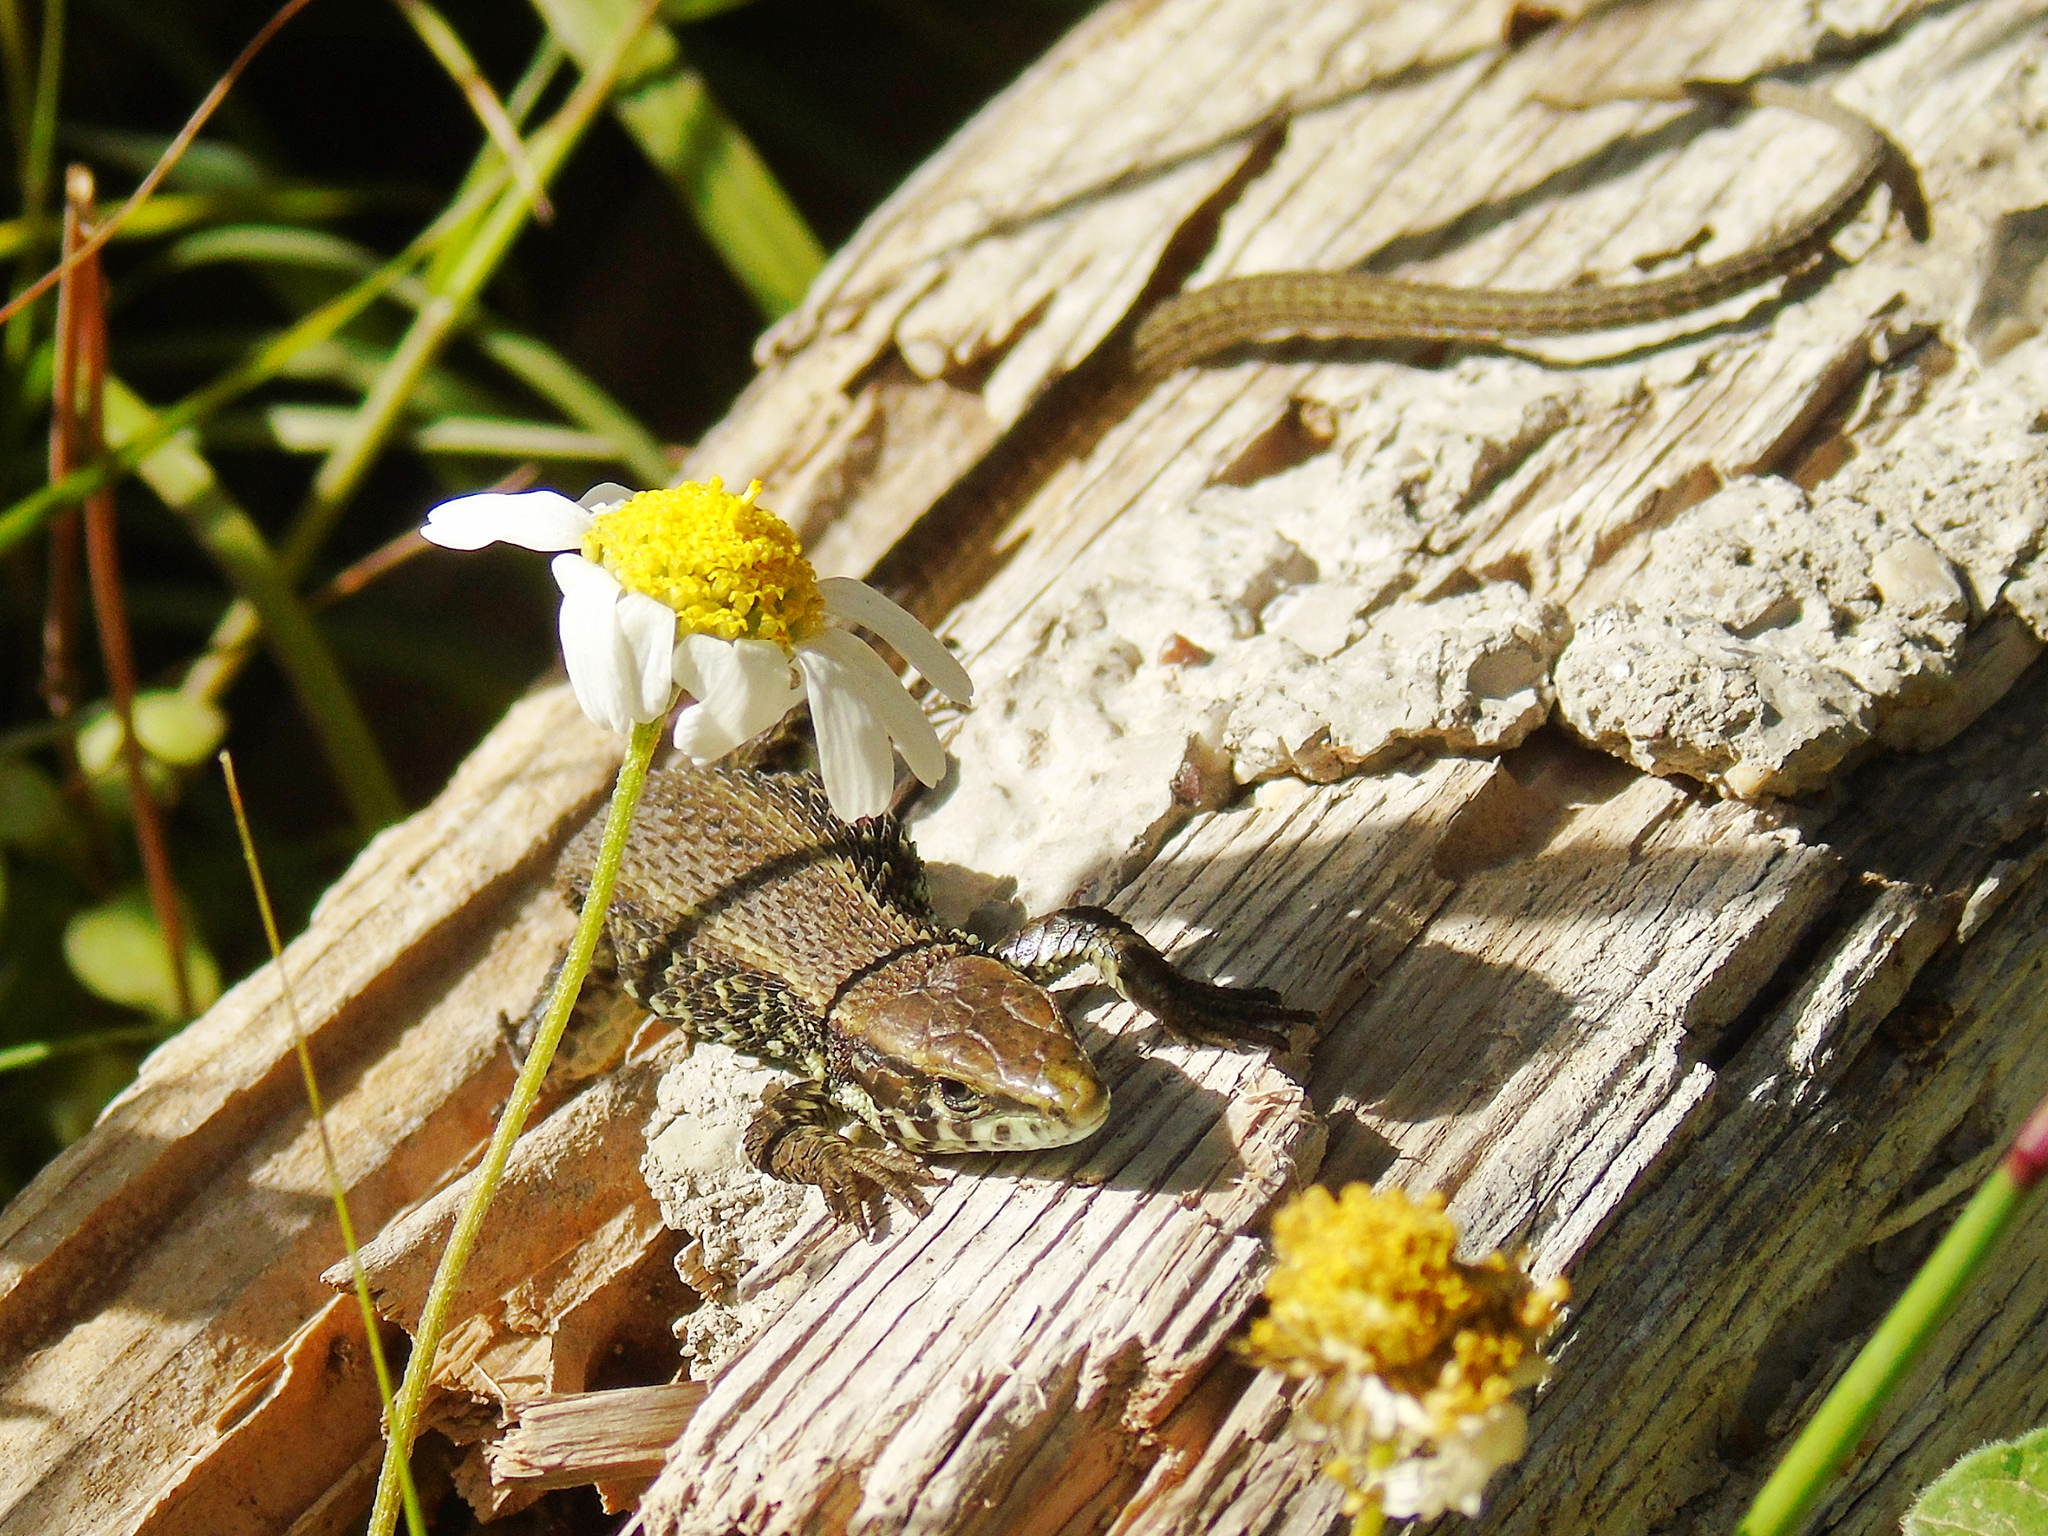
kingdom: Animalia
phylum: Chordata
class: Squamata
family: Lacertidae
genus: Algyroides
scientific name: Algyroides moreoticus
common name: Greek algyroides
